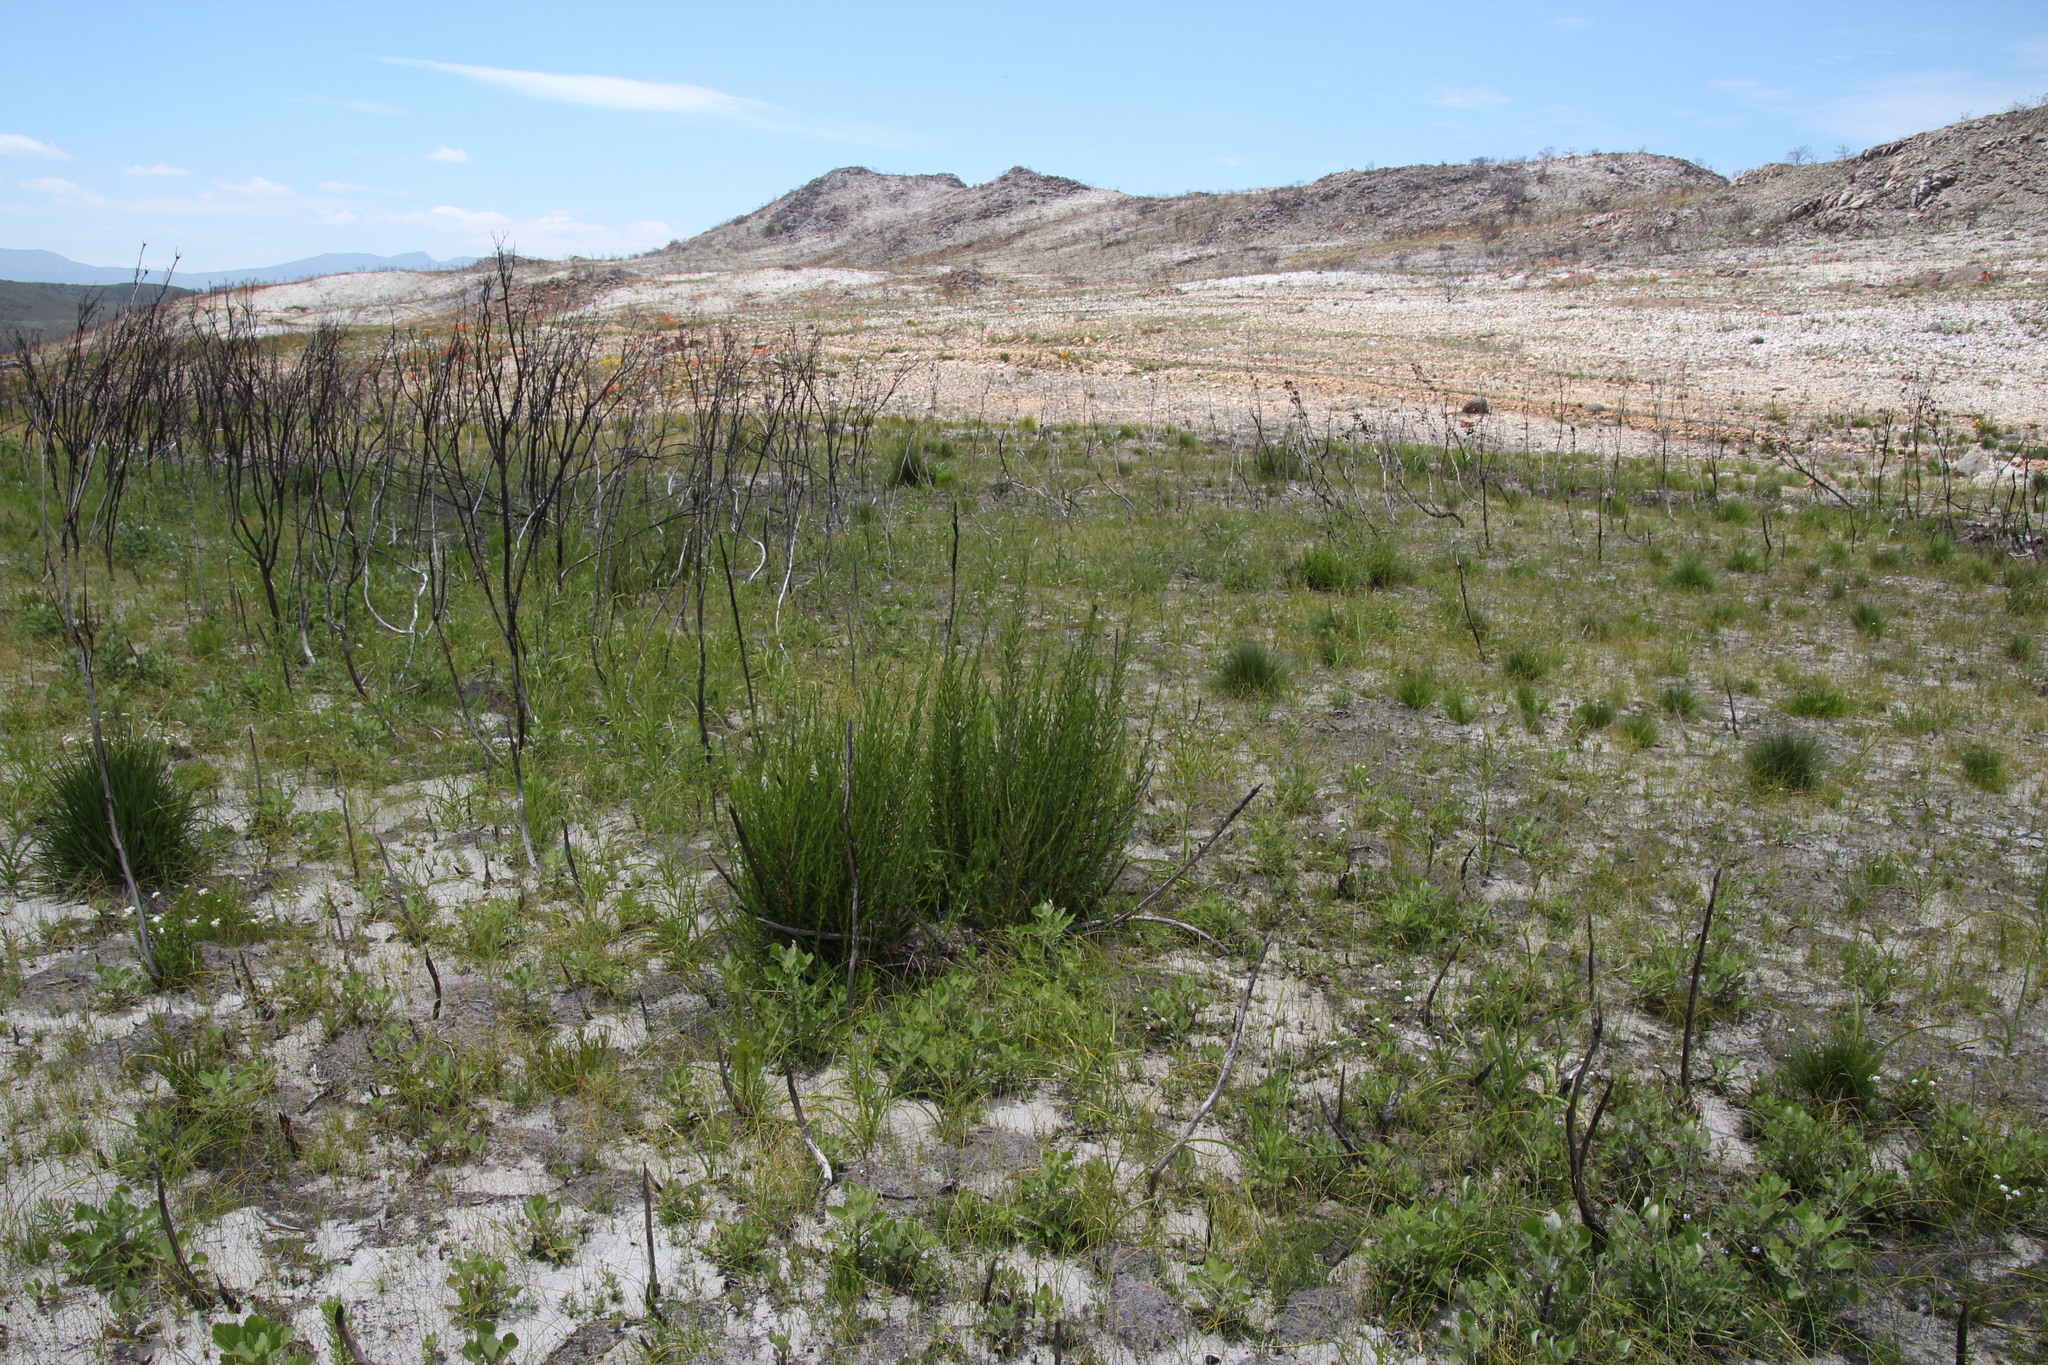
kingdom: Plantae
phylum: Tracheophyta
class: Magnoliopsida
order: Rosales
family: Rosaceae
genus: Cliffortia
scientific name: Cliffortia strobilifera
